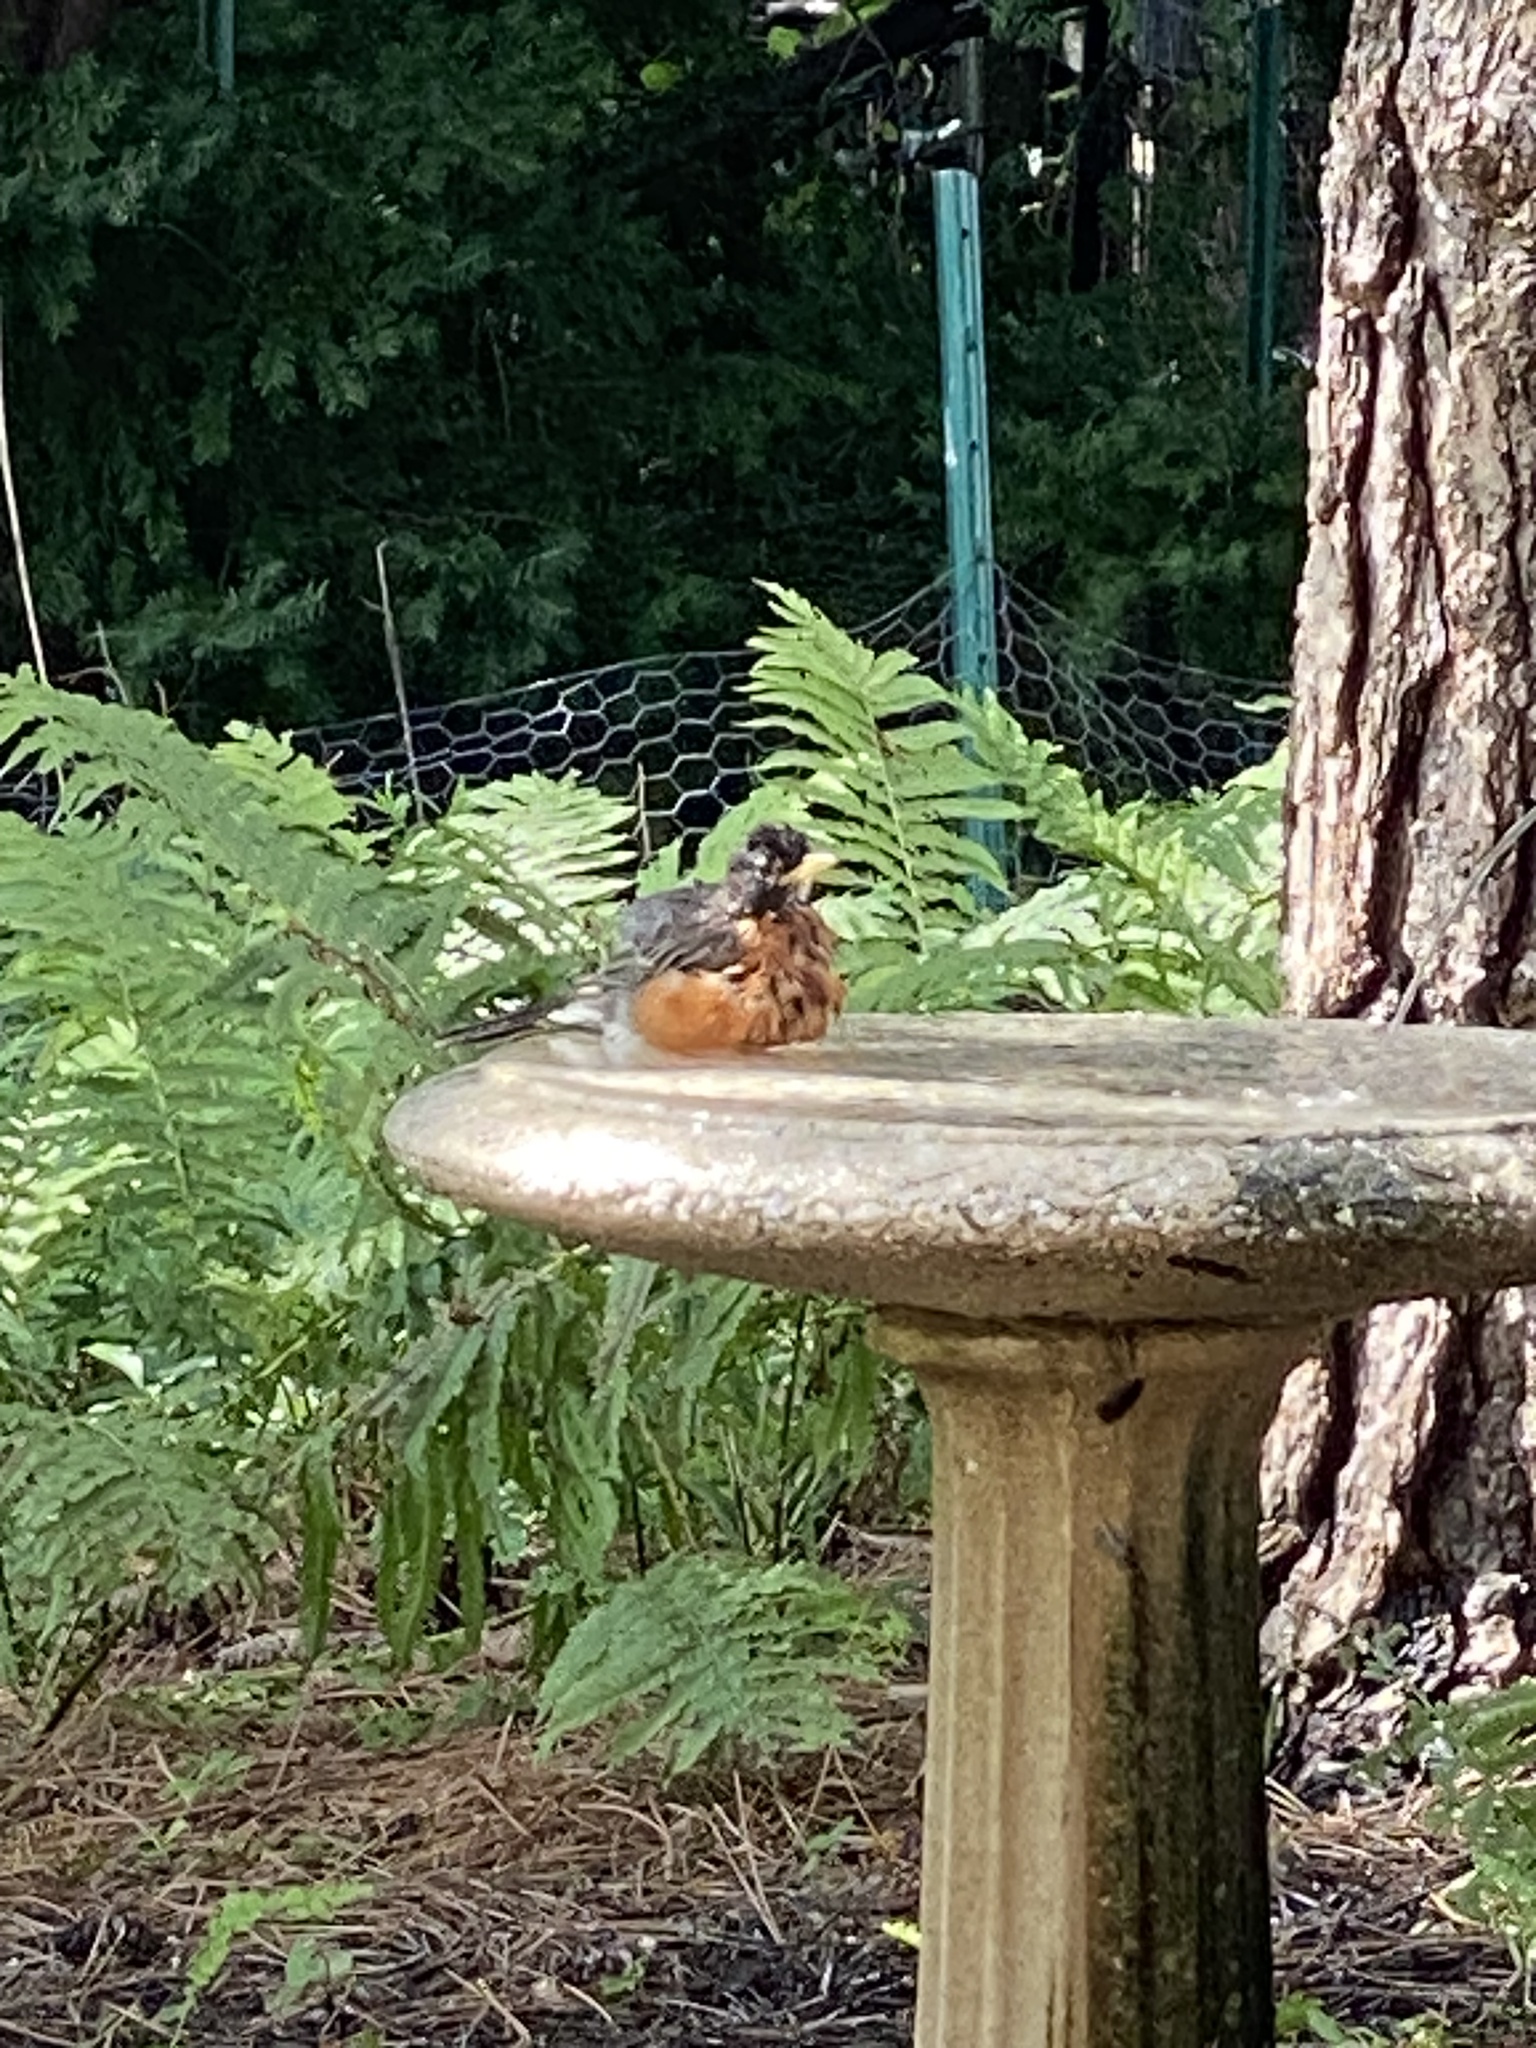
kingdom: Animalia
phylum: Chordata
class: Aves
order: Passeriformes
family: Turdidae
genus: Turdus
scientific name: Turdus migratorius
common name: American robin
